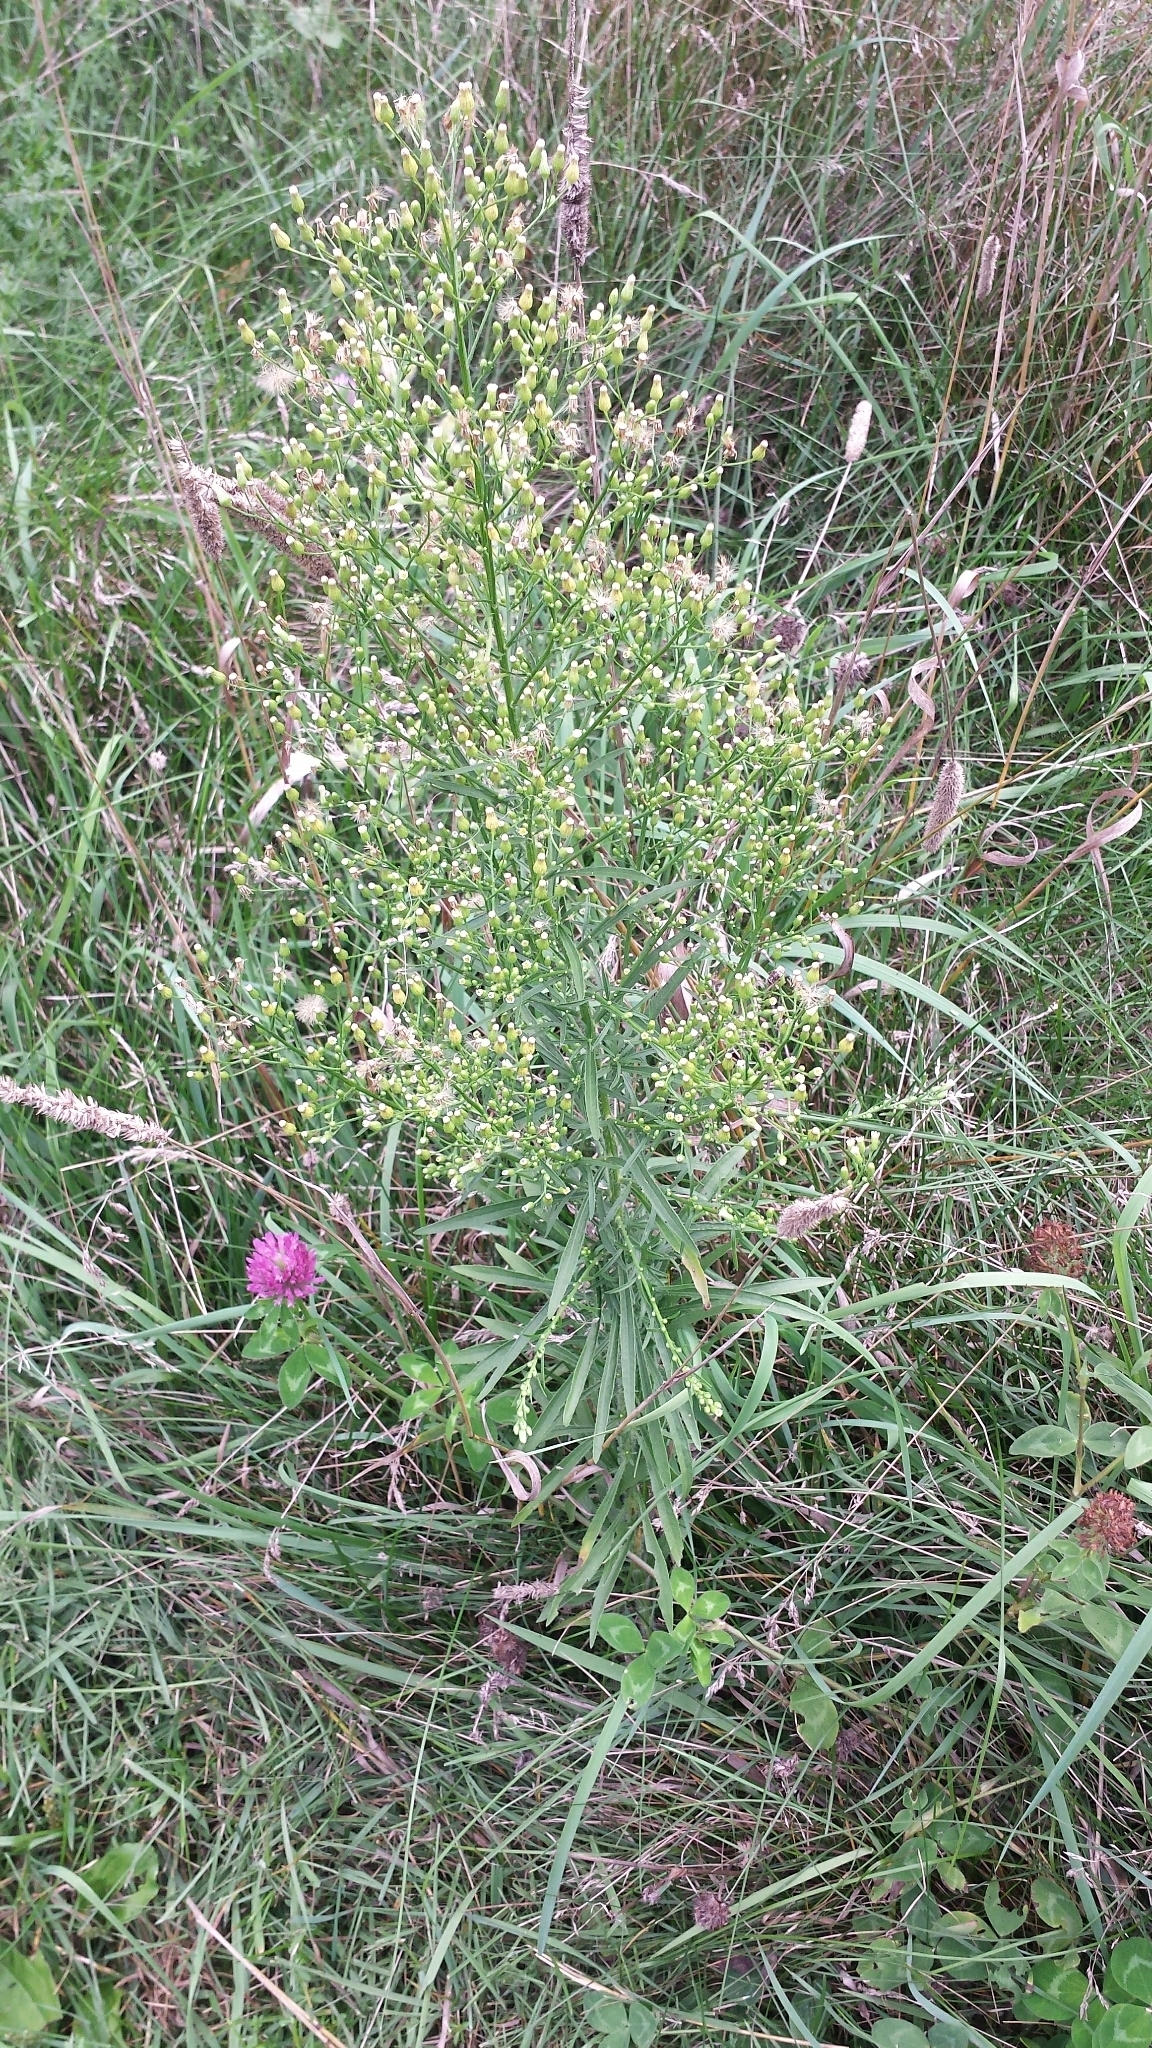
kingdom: Plantae
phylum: Tracheophyta
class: Magnoliopsida
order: Asterales
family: Asteraceae
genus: Erigeron
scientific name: Erigeron canadensis
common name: Canadian fleabane
